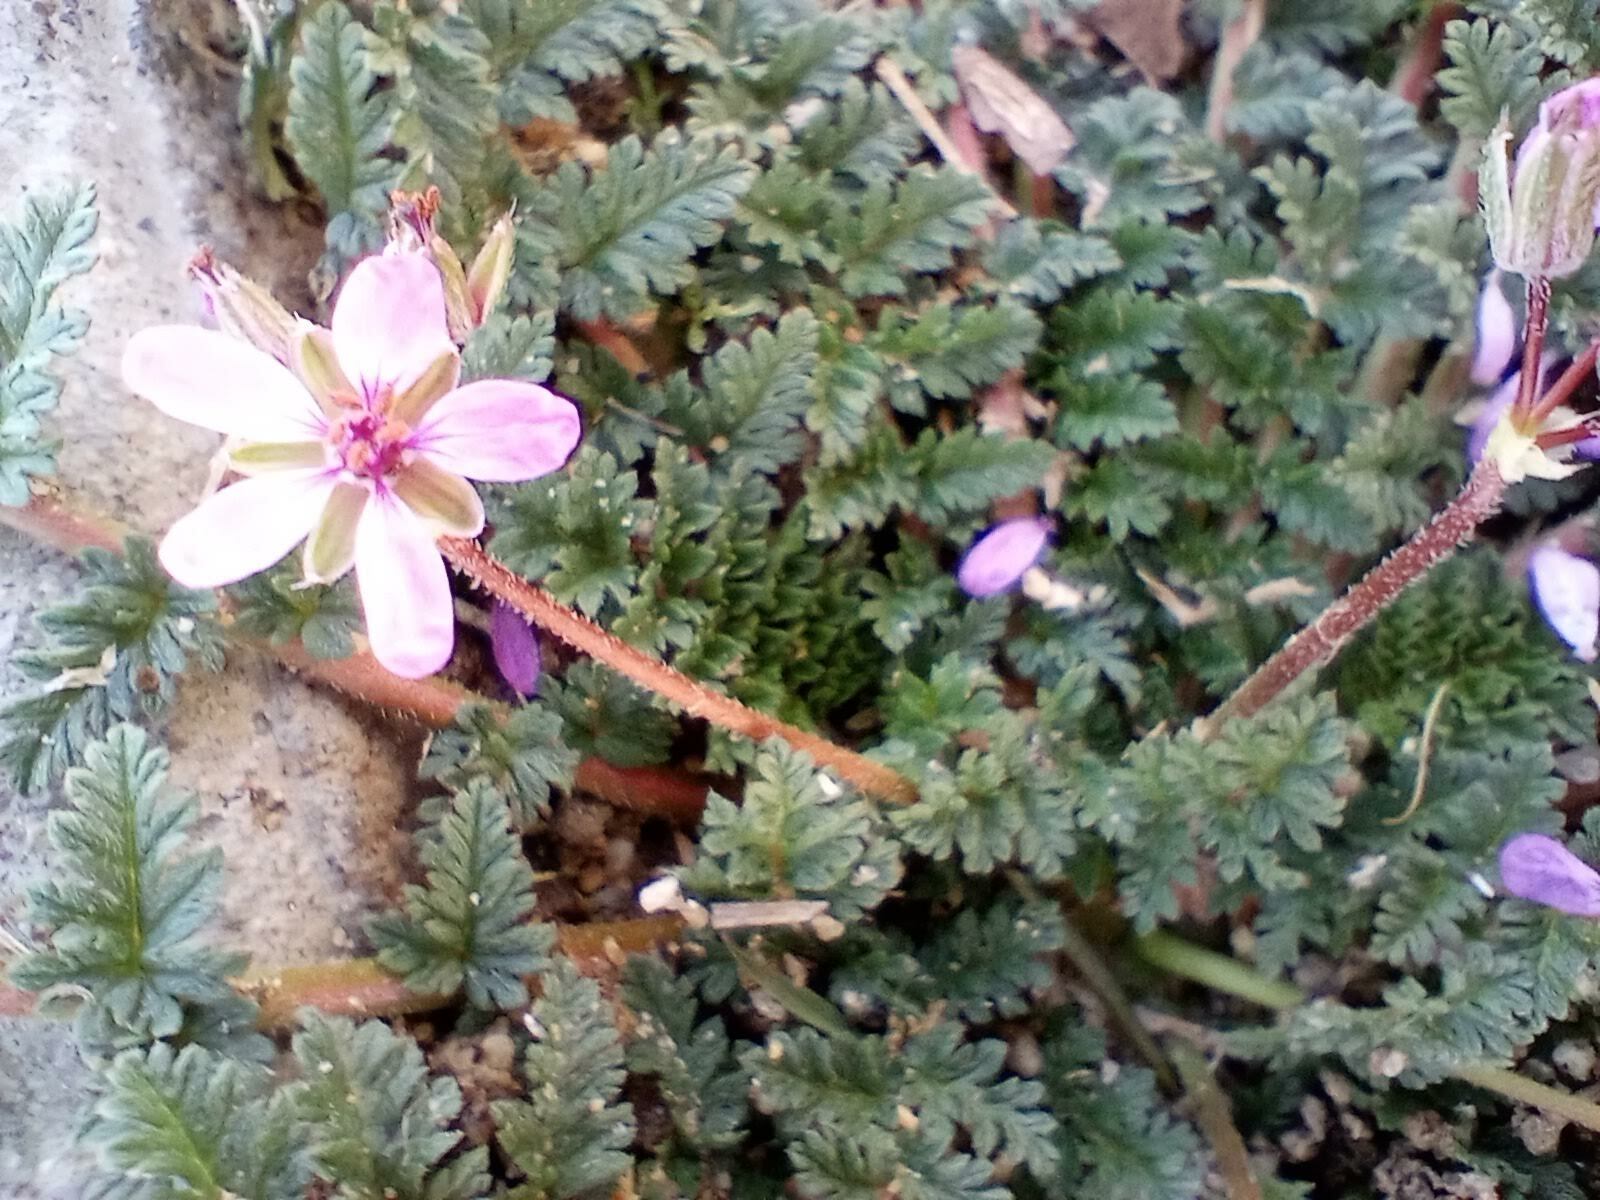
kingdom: Plantae
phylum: Tracheophyta
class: Magnoliopsida
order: Geraniales
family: Geraniaceae
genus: Erodium
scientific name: Erodium cicutarium
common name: Common stork's-bill
